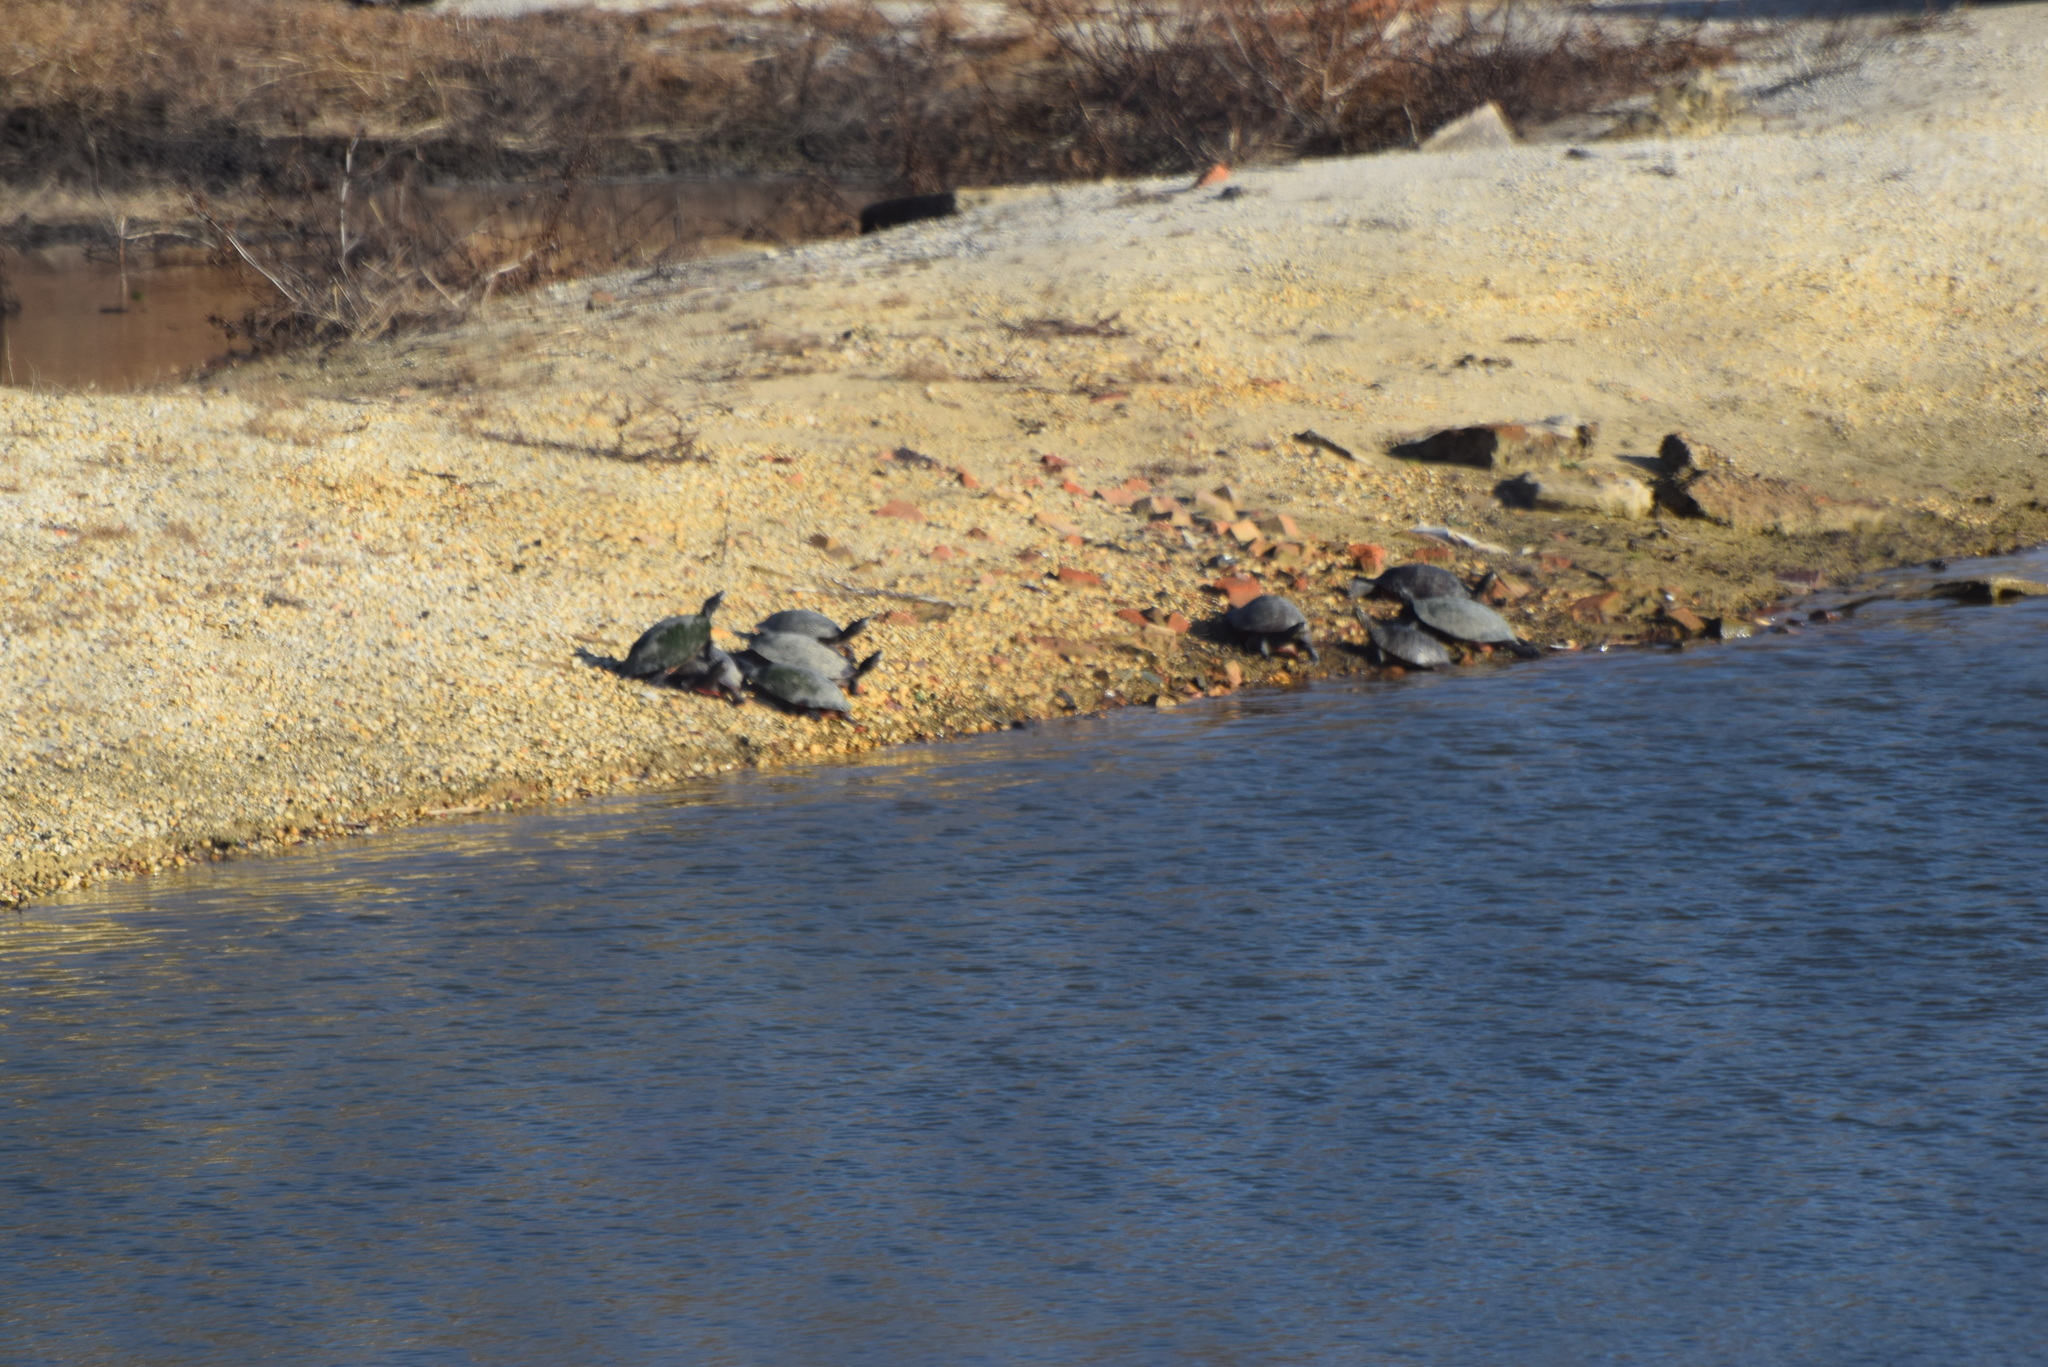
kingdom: Animalia
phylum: Chordata
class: Testudines
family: Emydidae
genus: Pseudemys
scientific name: Pseudemys rubriventris
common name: American red-bellied turtle
